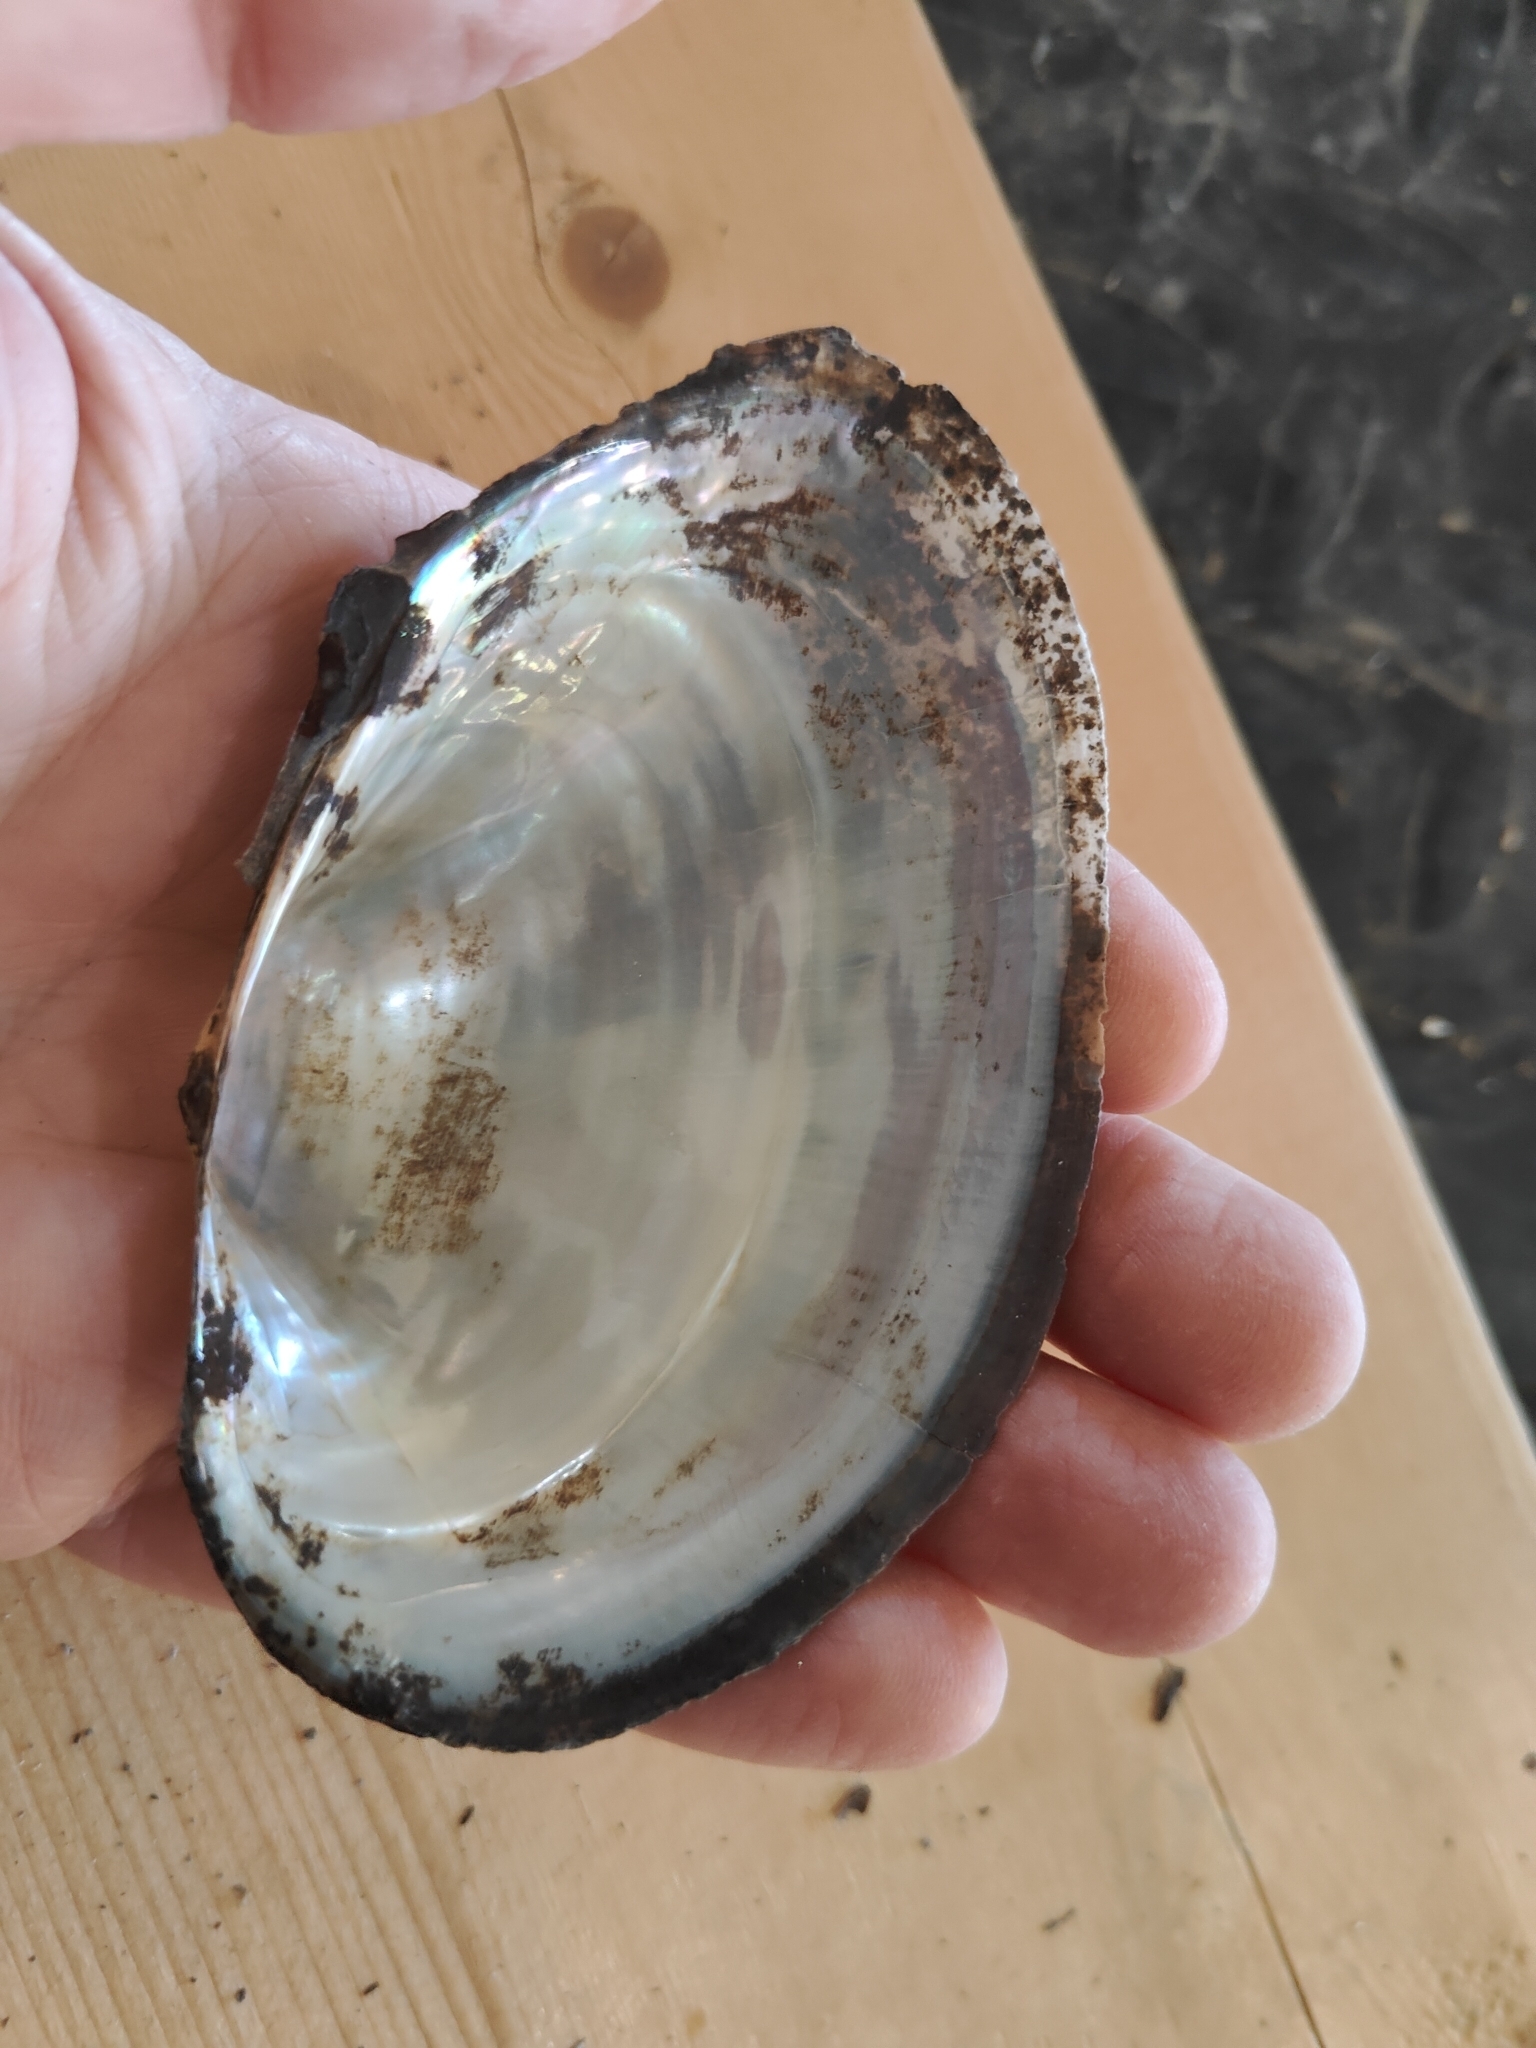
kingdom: Animalia
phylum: Mollusca
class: Bivalvia
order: Unionida
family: Unionidae
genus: Pyganodon
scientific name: Pyganodon grandis
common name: Giant floater
